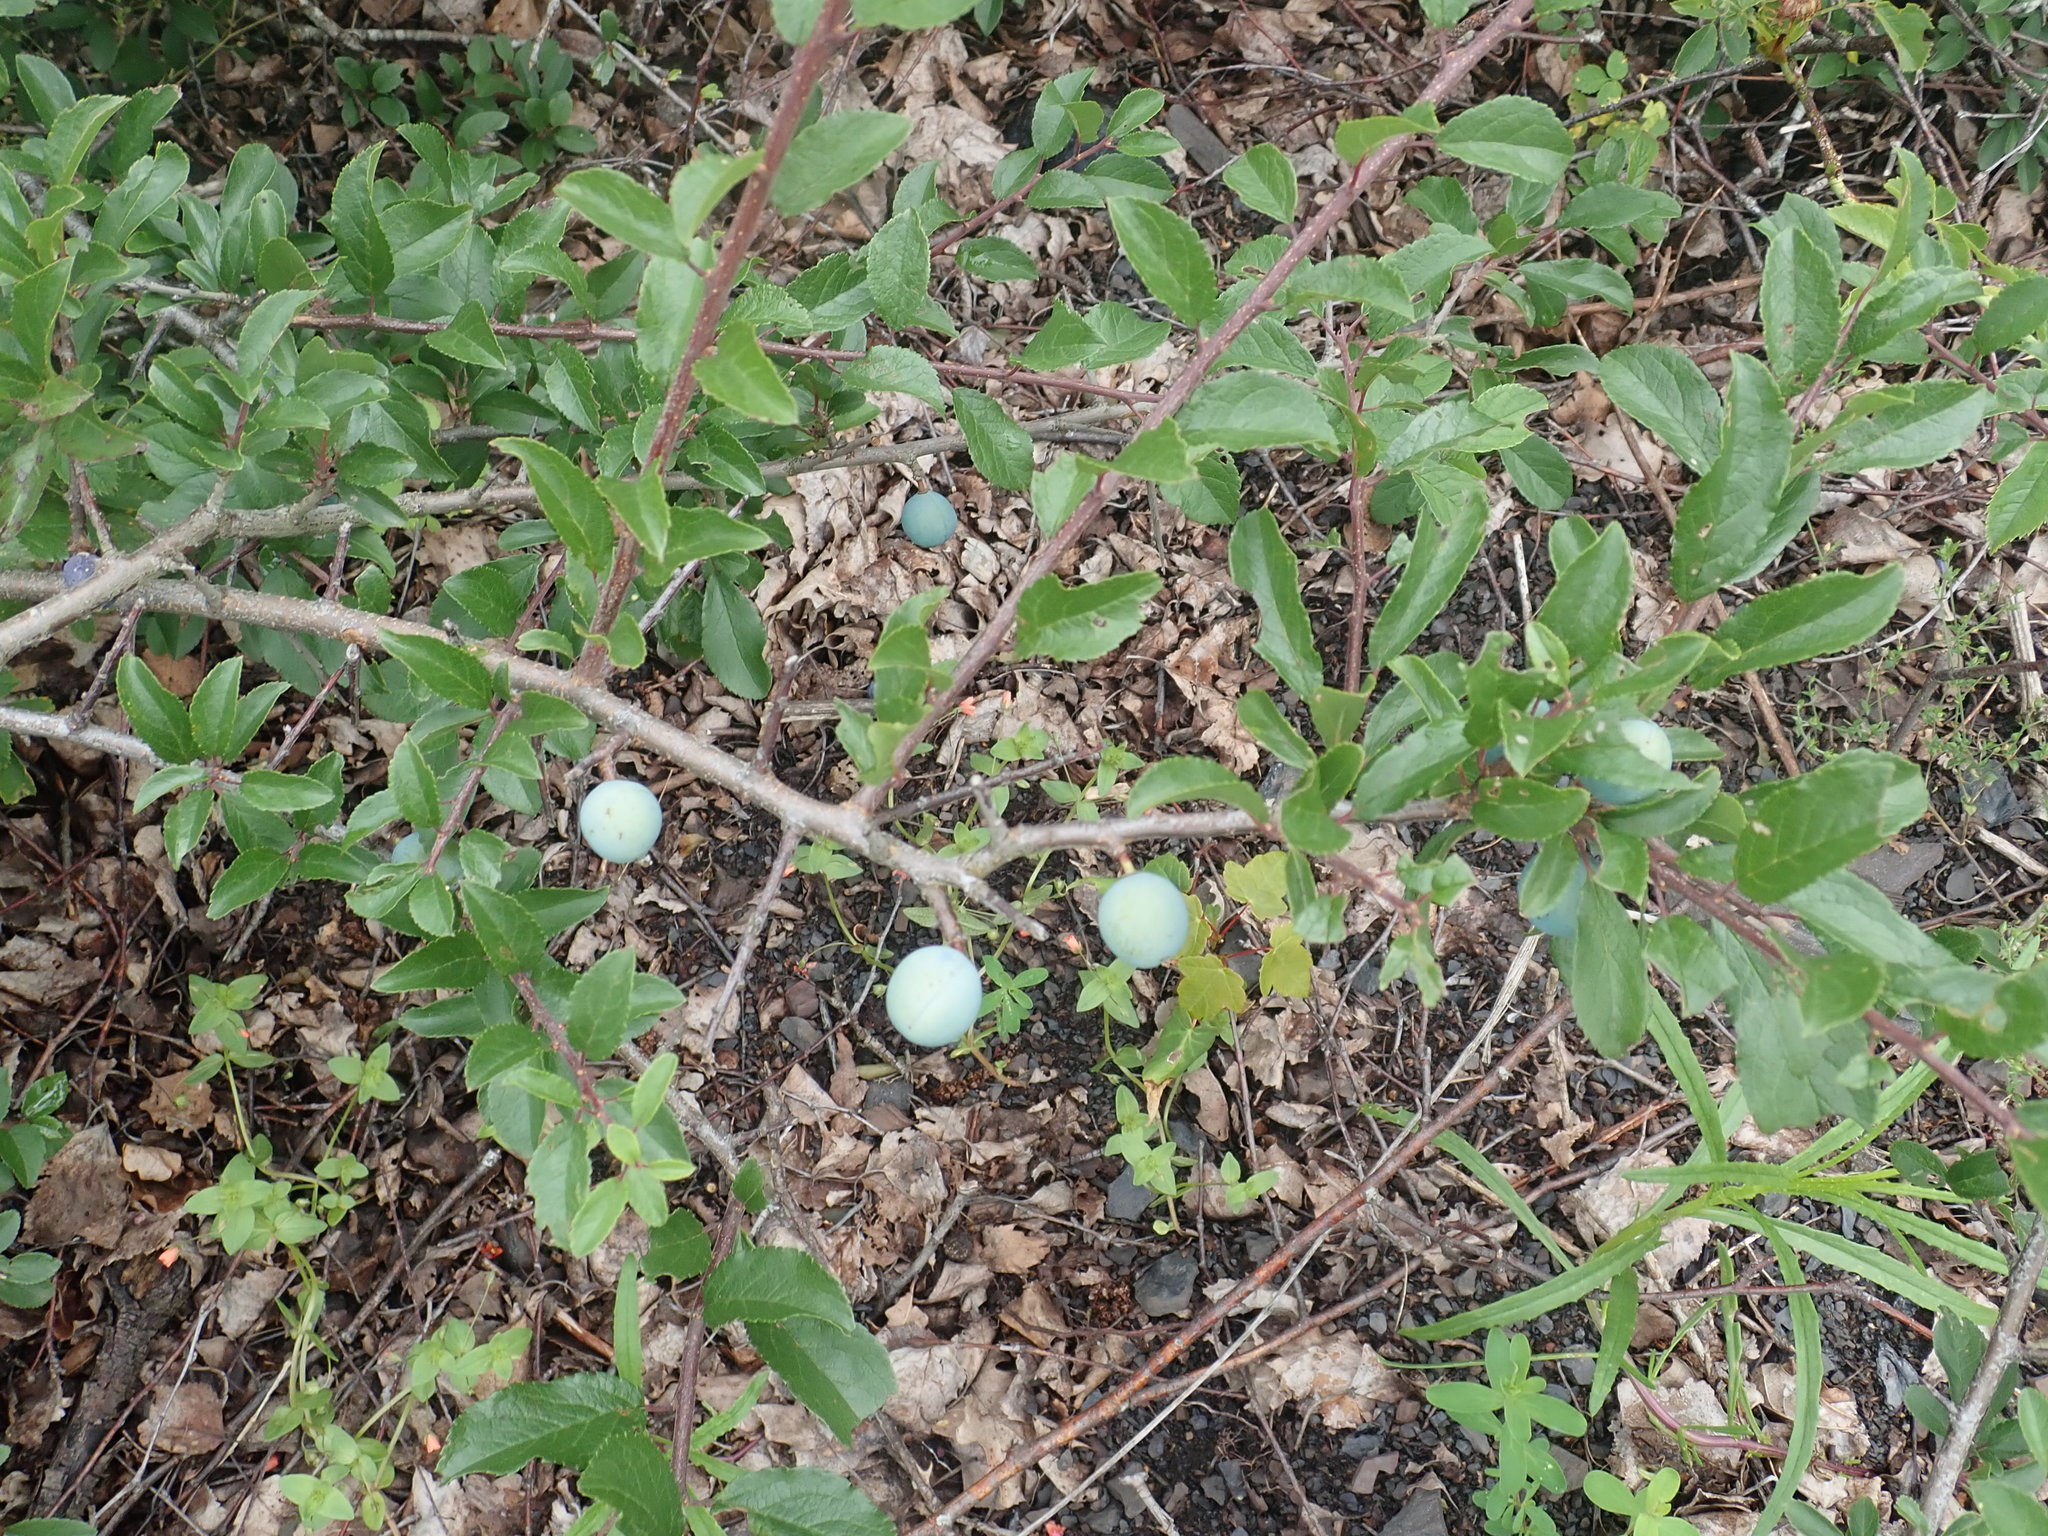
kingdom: Plantae
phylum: Tracheophyta
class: Magnoliopsida
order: Rosales
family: Rosaceae
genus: Prunus
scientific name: Prunus spinosa
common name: Blackthorn
